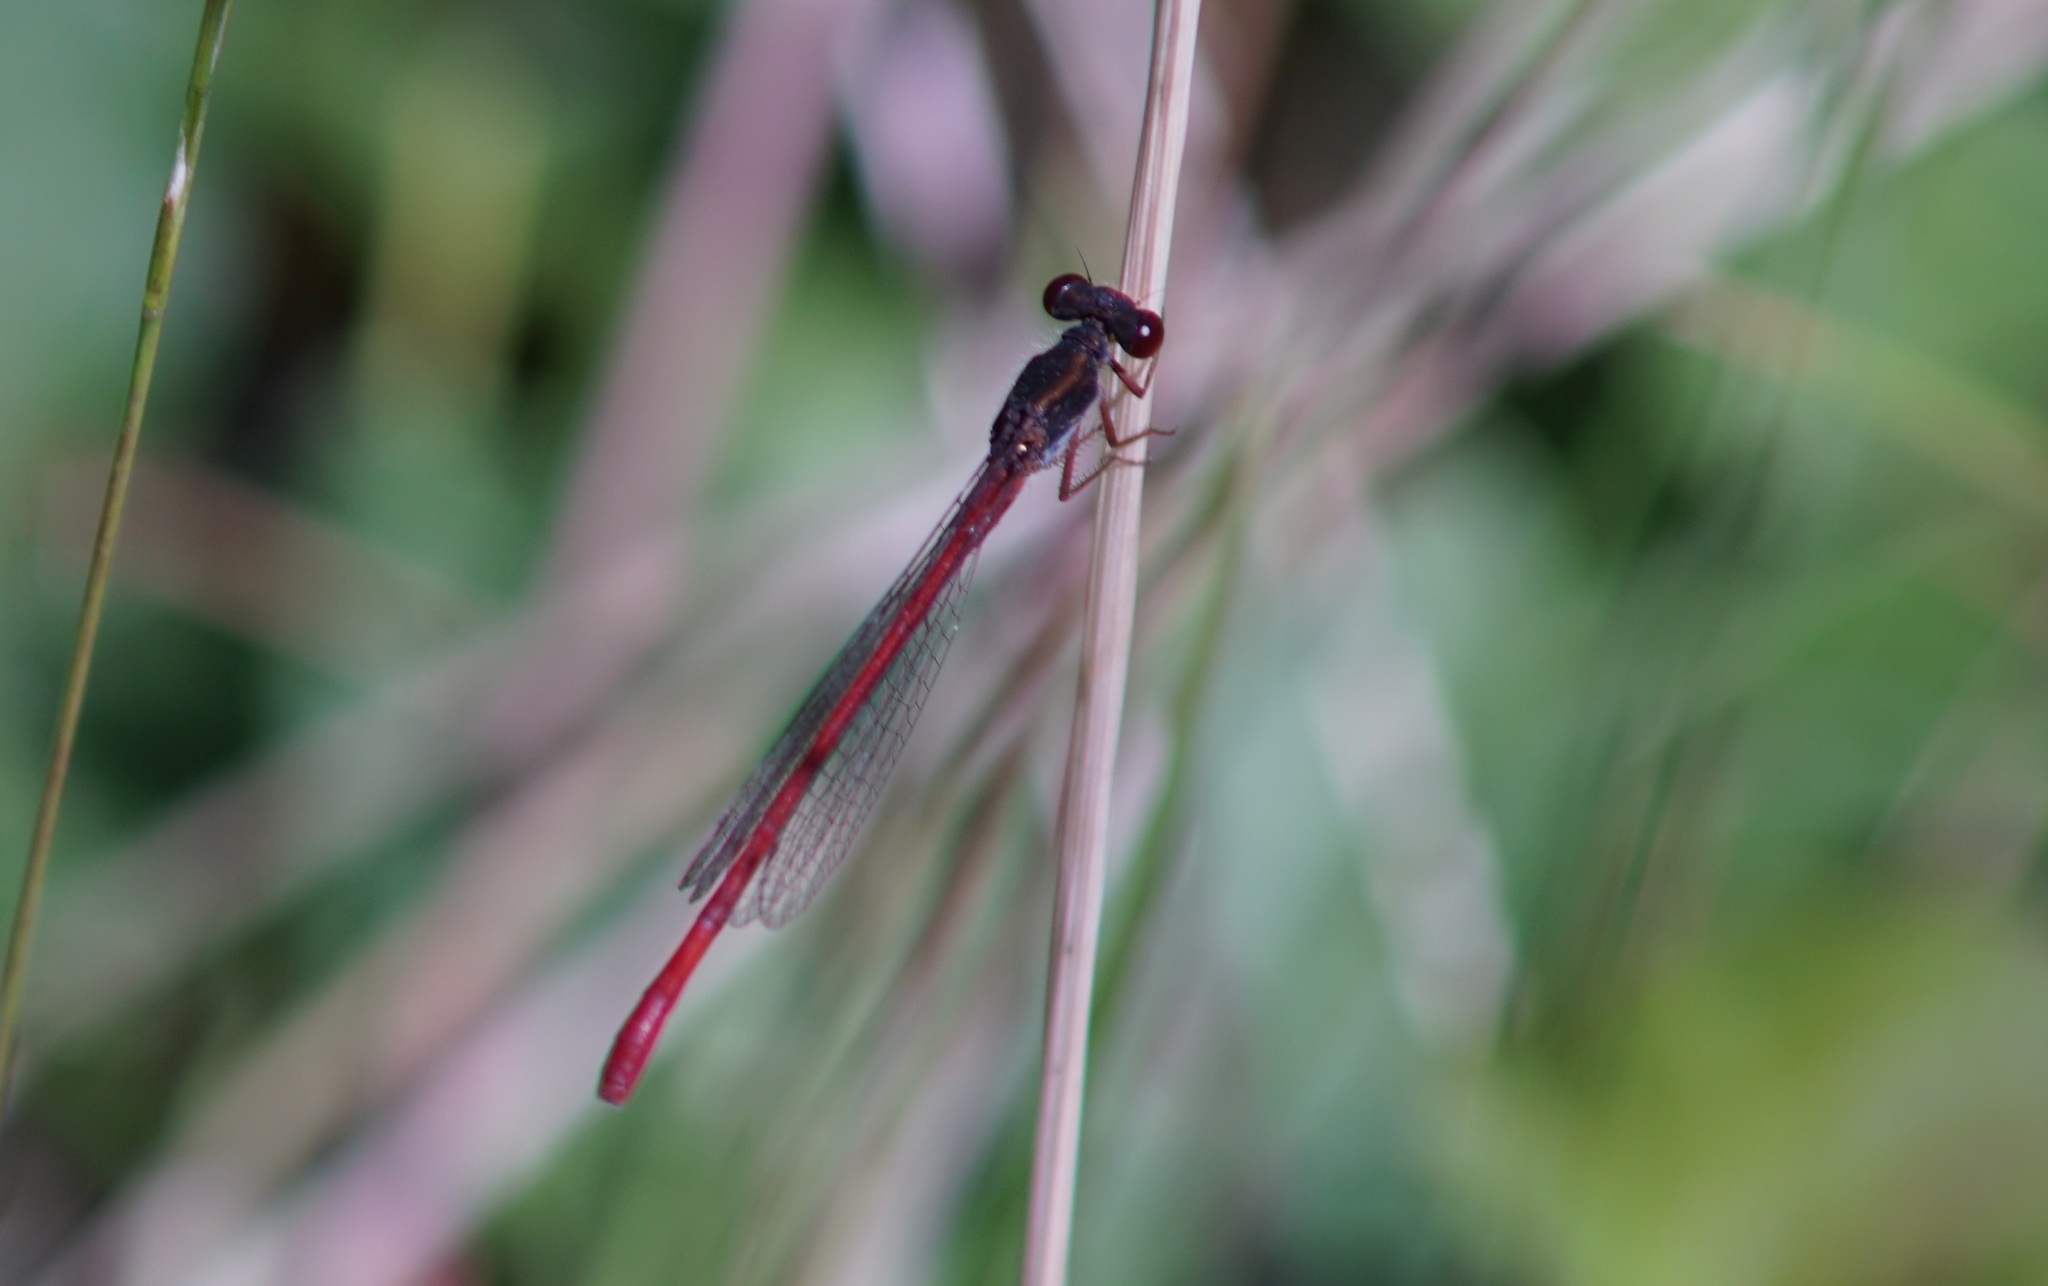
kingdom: Animalia
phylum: Arthropoda
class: Insecta
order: Odonata
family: Coenagrionidae
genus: Ceriagrion
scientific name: Ceriagrion tenellum
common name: Small red damselfly
